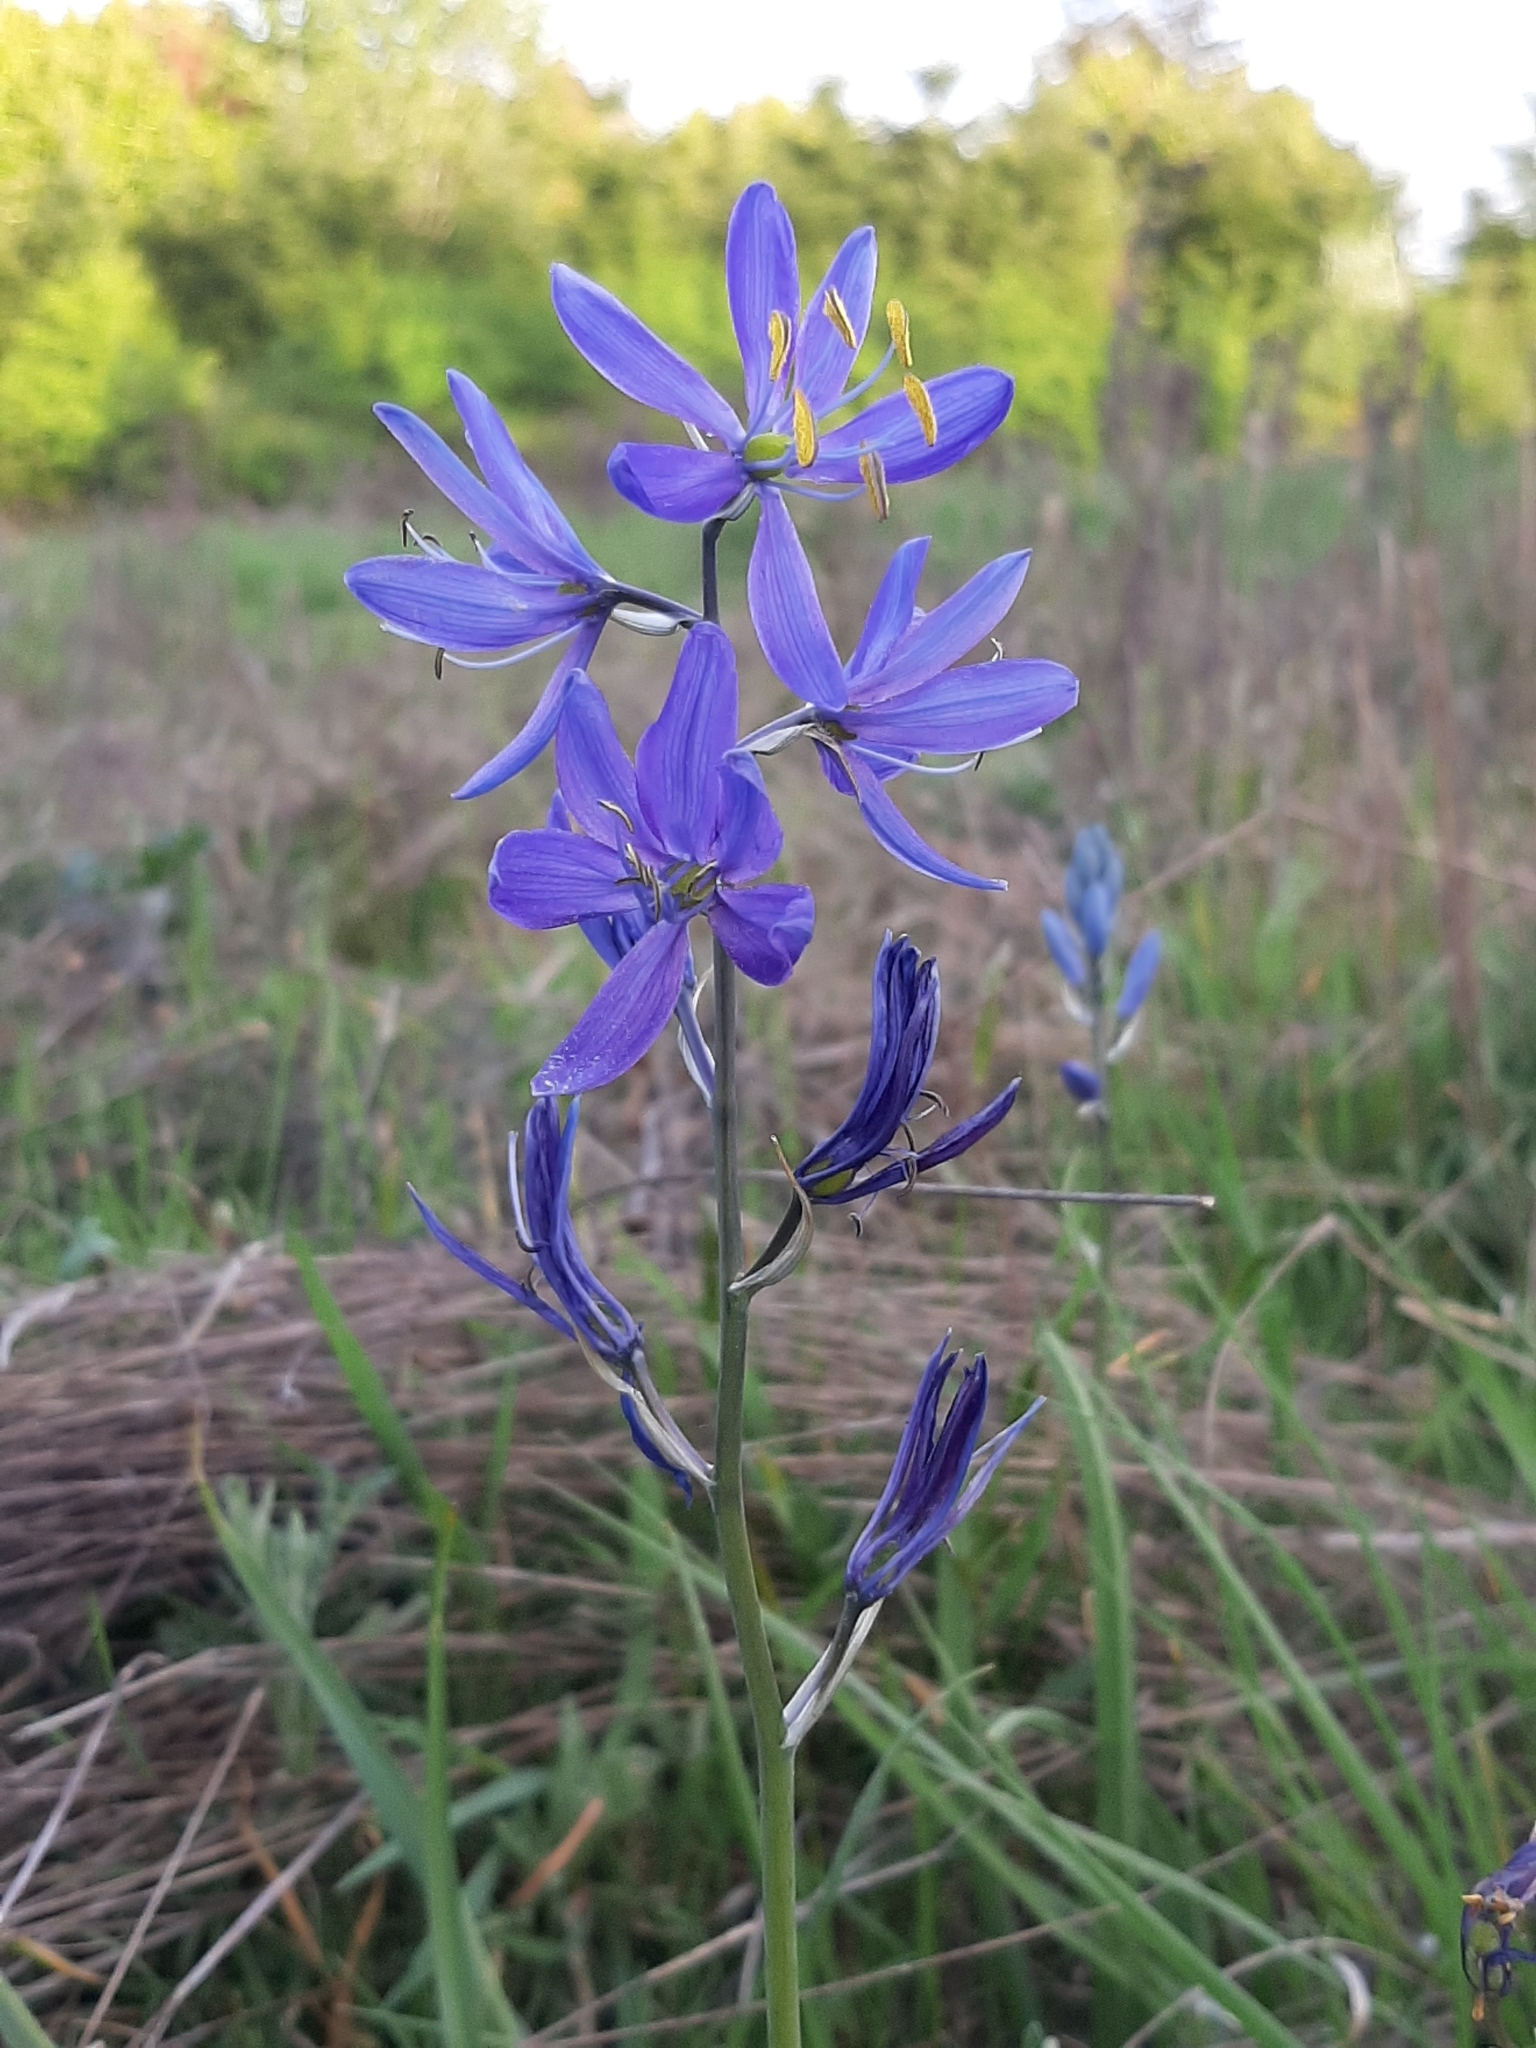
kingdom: Plantae
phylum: Tracheophyta
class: Liliopsida
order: Asparagales
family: Asparagaceae
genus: Camassia
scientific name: Camassia quamash
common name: Common camas
